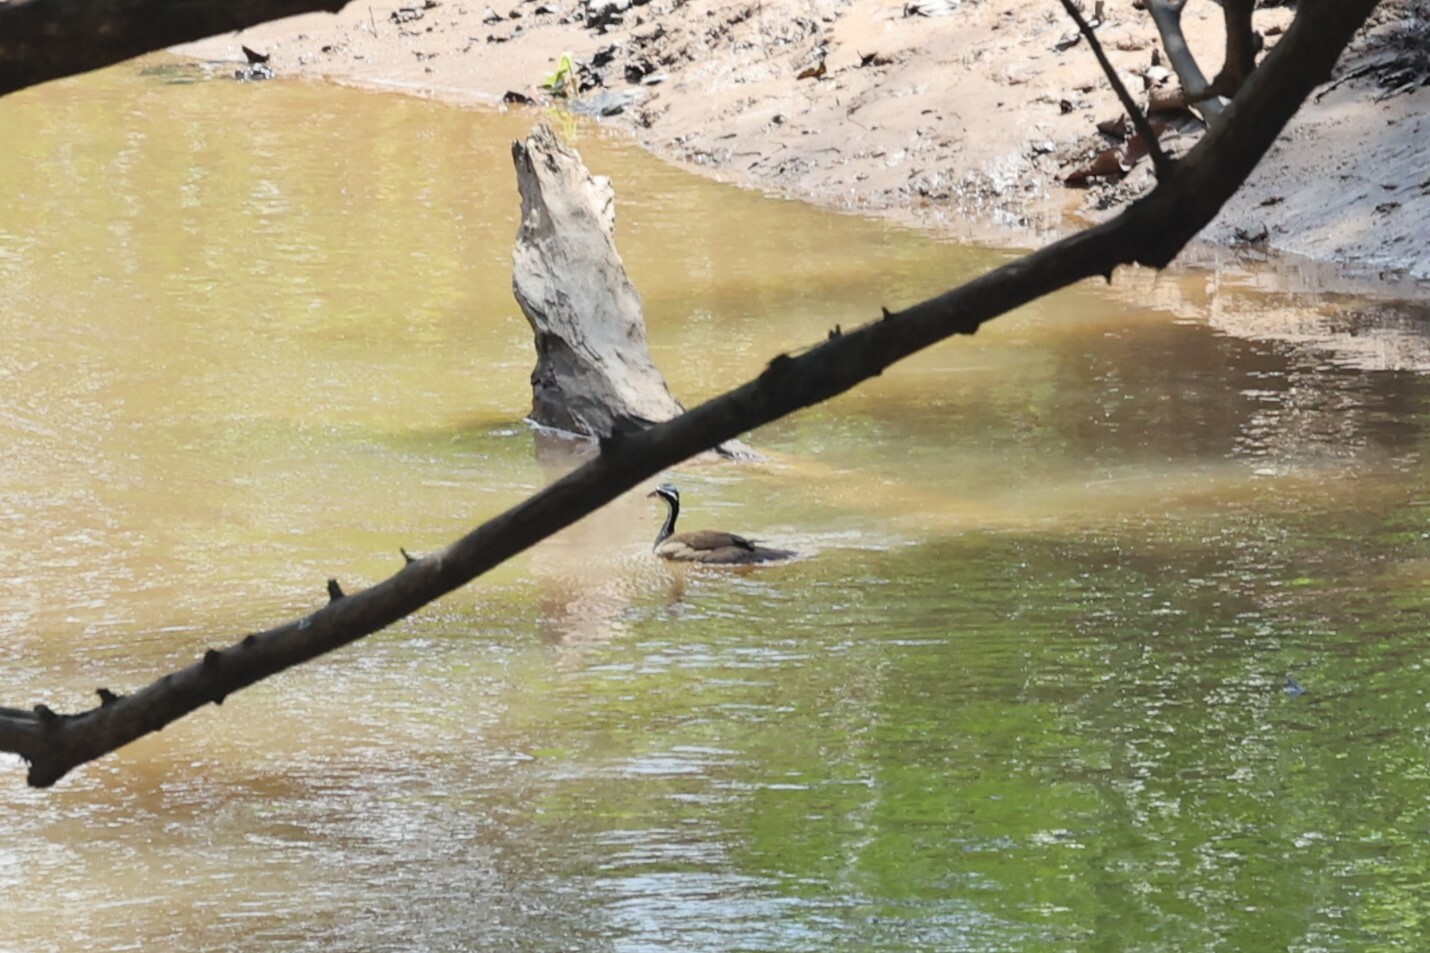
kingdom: Animalia
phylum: Chordata
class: Aves
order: Gruiformes
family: Heliornithidae
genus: Heliornis
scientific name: Heliornis fulica
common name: Sungrebe
